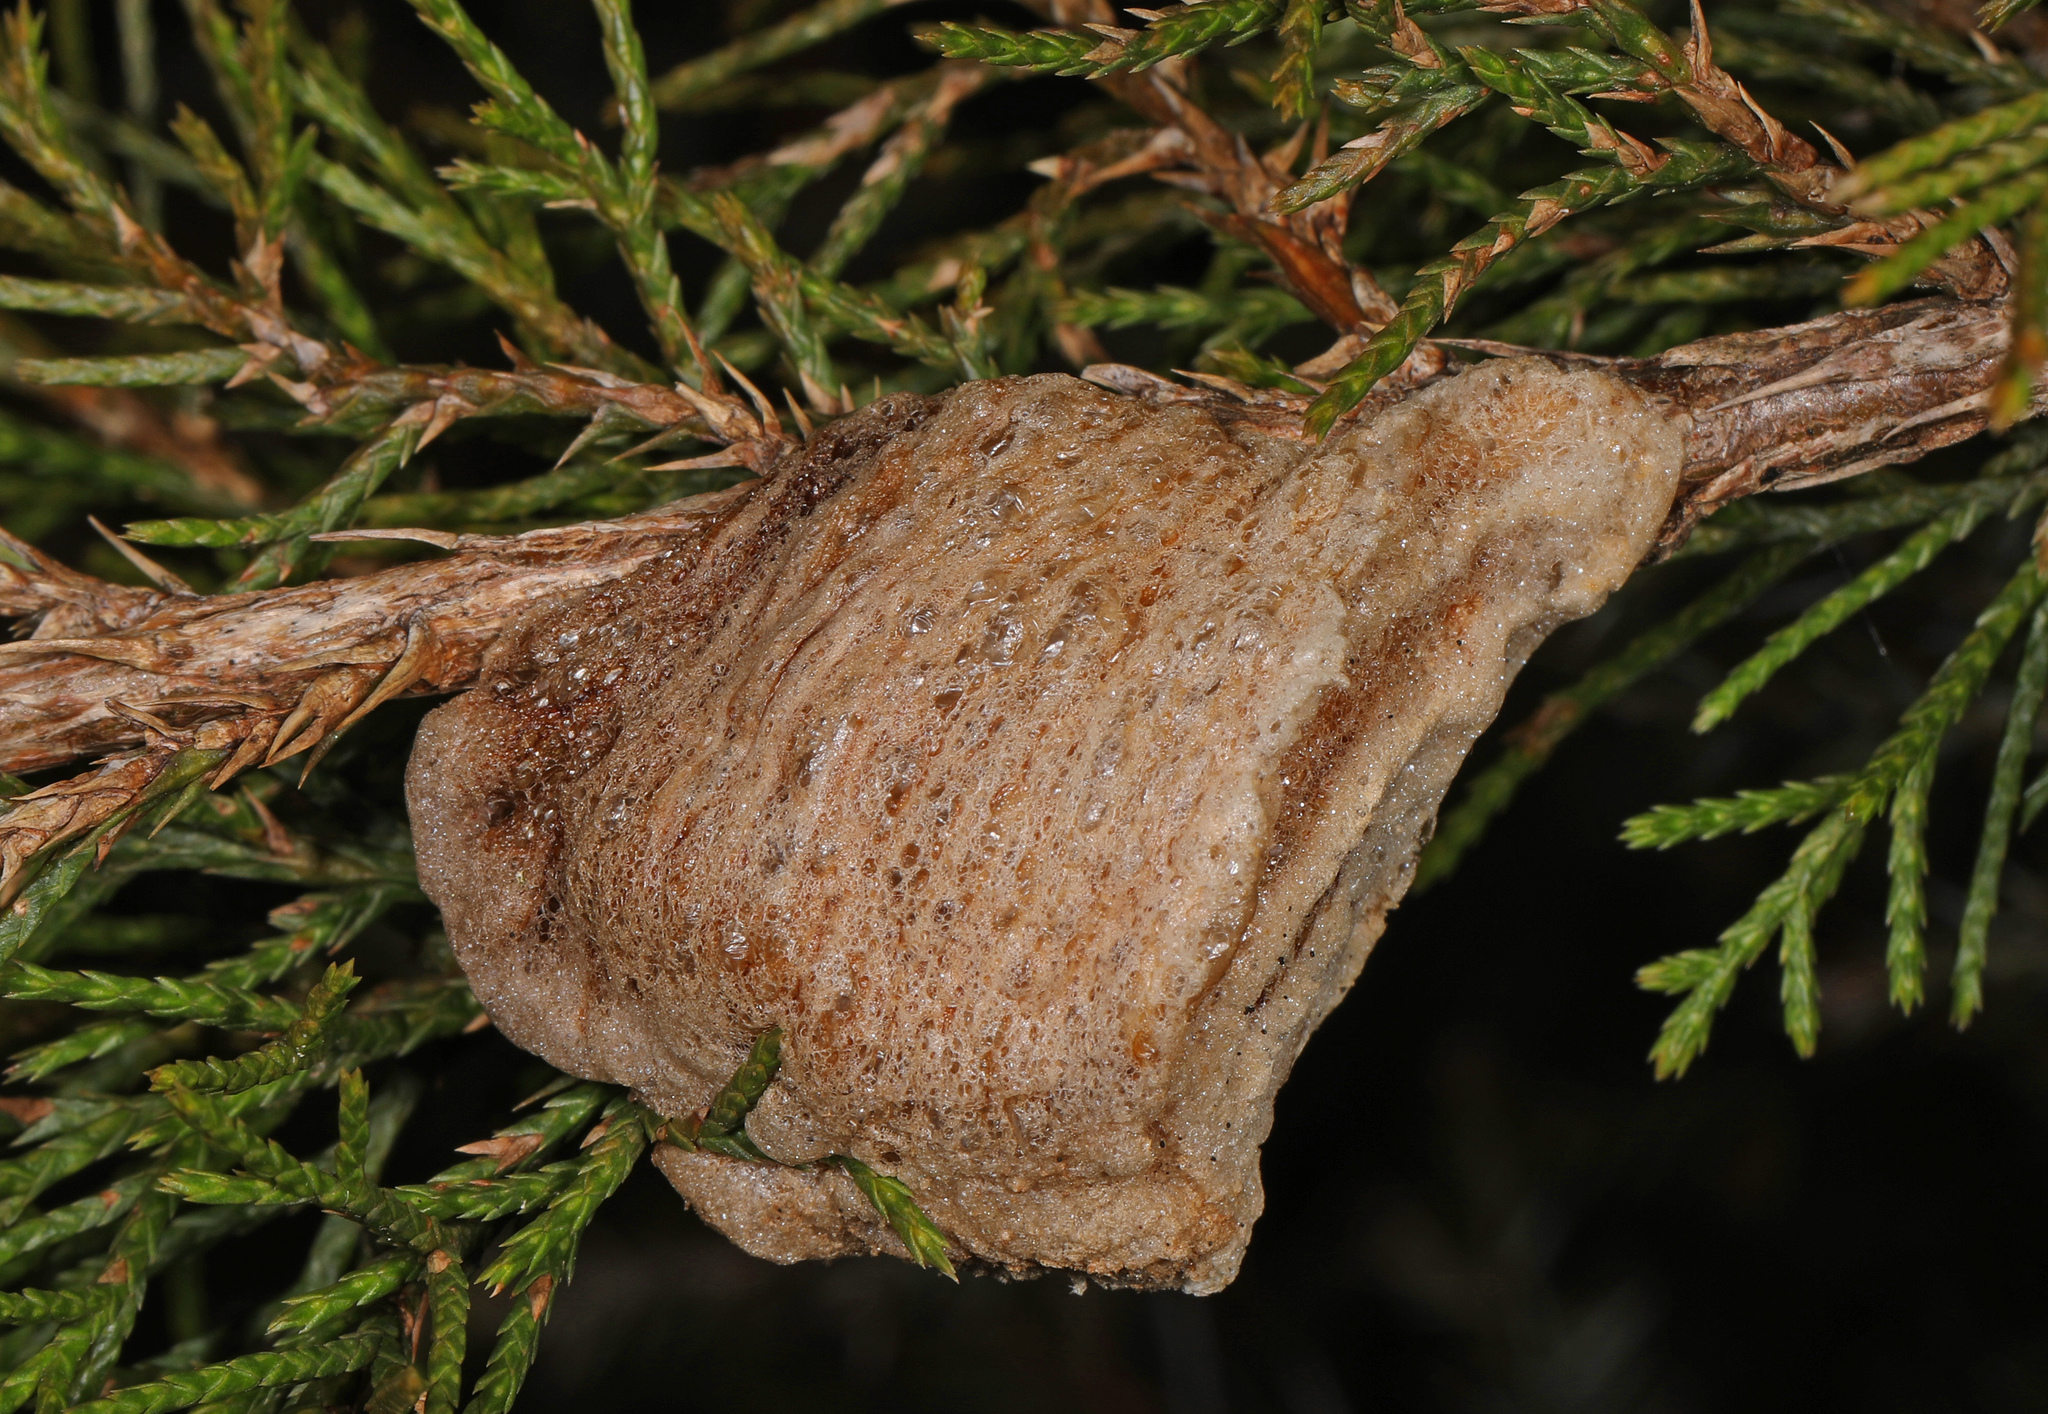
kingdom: Animalia
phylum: Arthropoda
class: Insecta
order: Mantodea
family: Mantidae
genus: Tenodera
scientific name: Tenodera sinensis
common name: Chinese mantis
